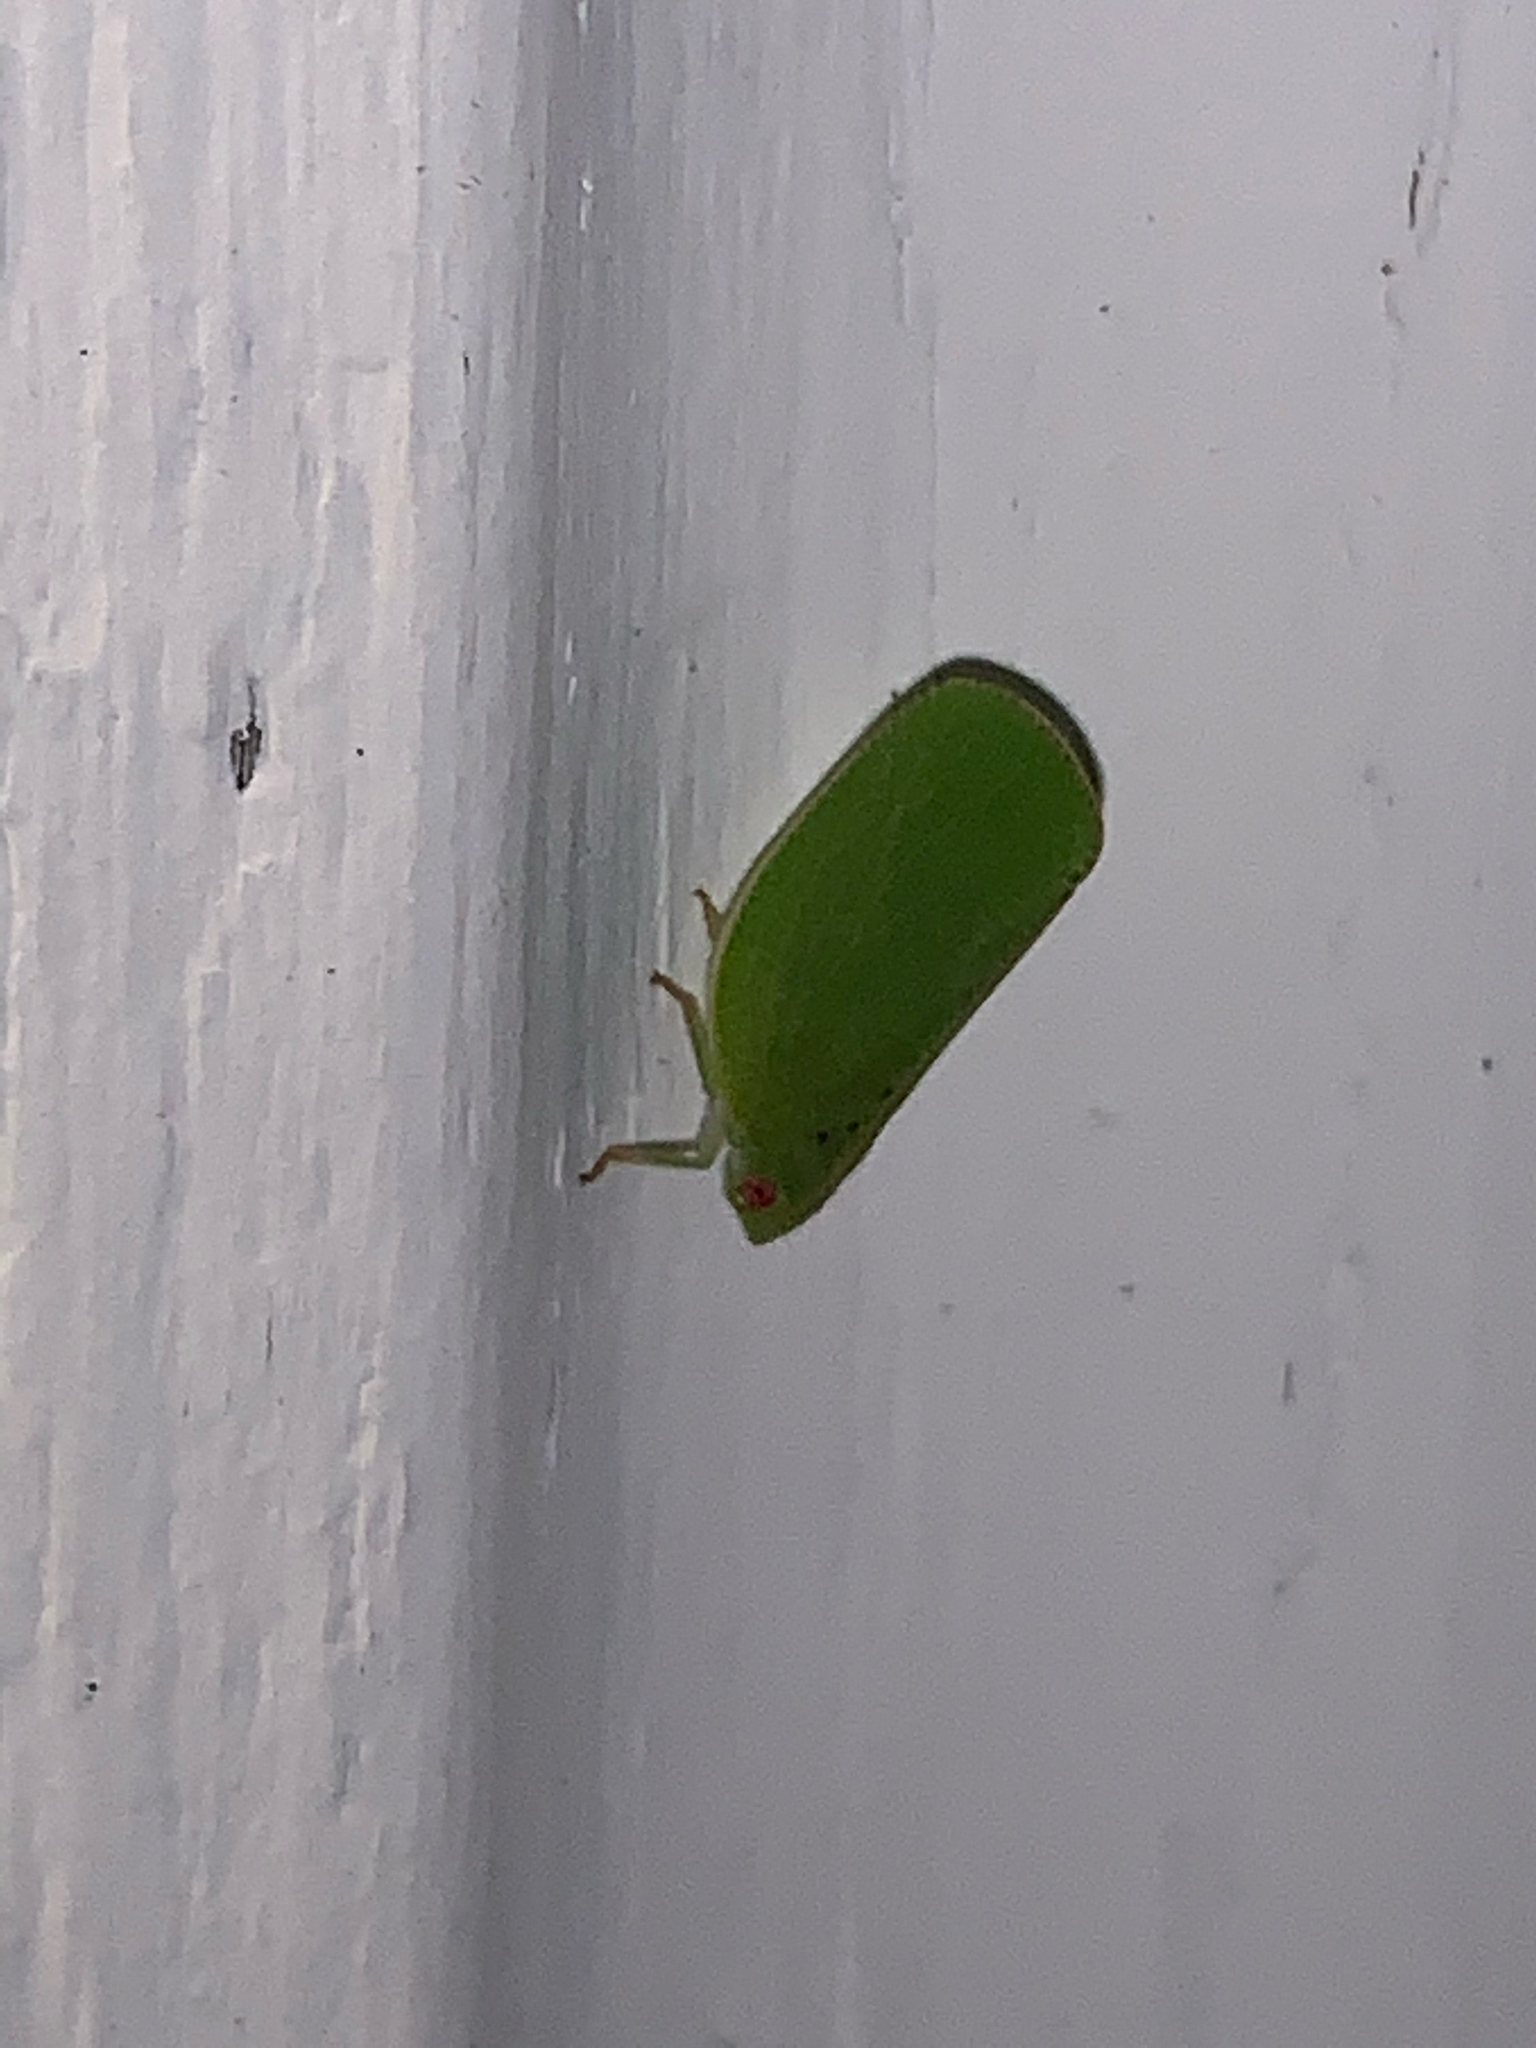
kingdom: Animalia
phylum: Arthropoda
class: Insecta
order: Hemiptera
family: Acanaloniidae
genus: Acanalonia
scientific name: Acanalonia conica
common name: Green cone-headed planthopper
